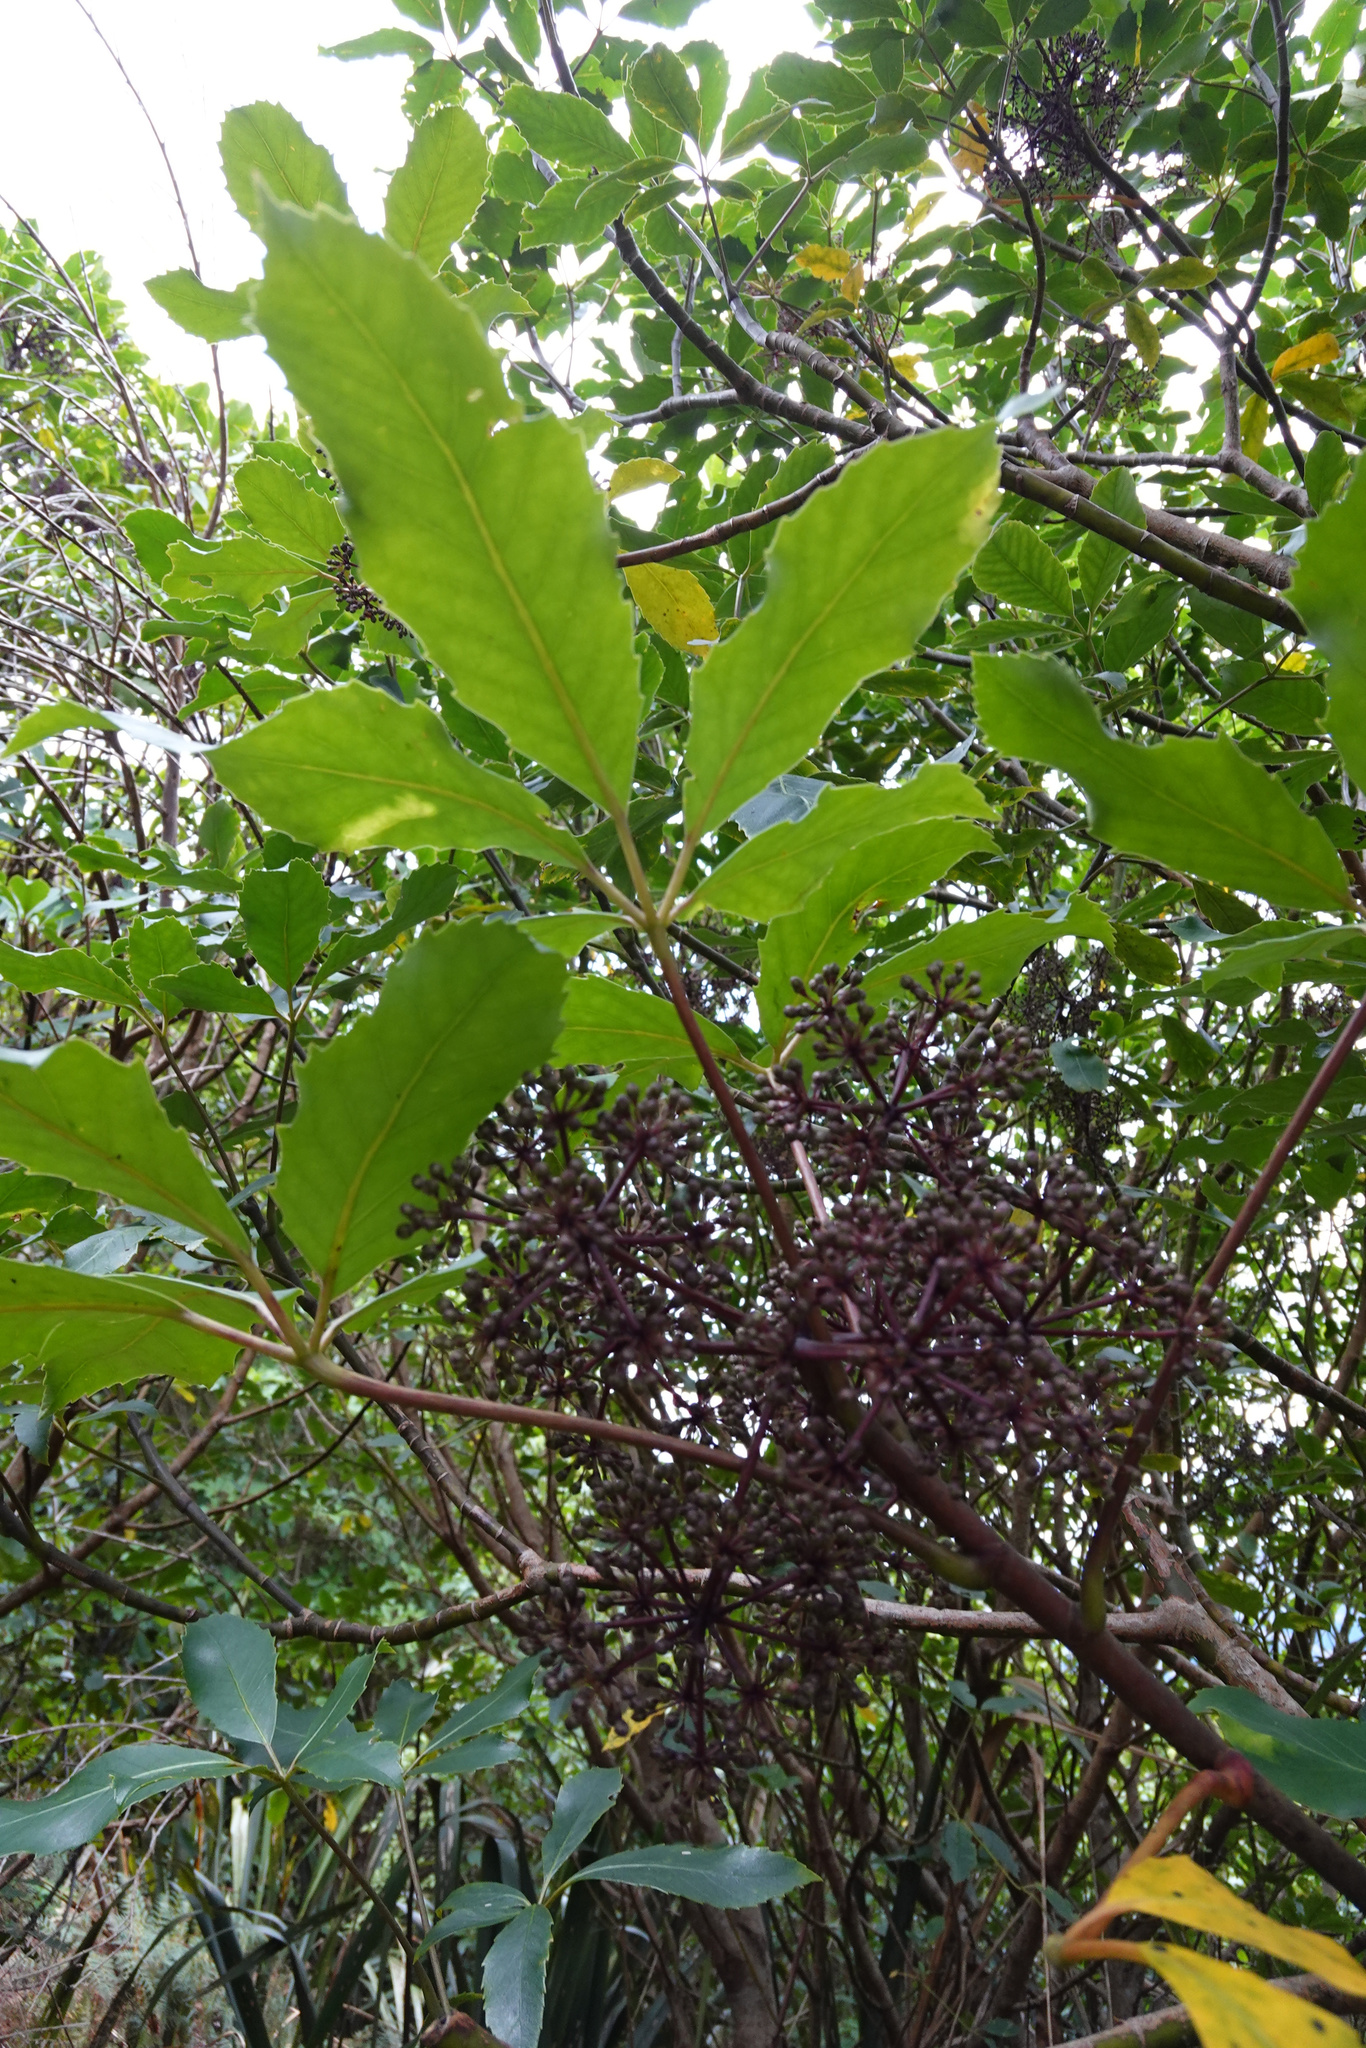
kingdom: Plantae
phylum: Tracheophyta
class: Magnoliopsida
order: Apiales
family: Araliaceae
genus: Neopanax
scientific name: Neopanax arboreus
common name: Five-fingers
